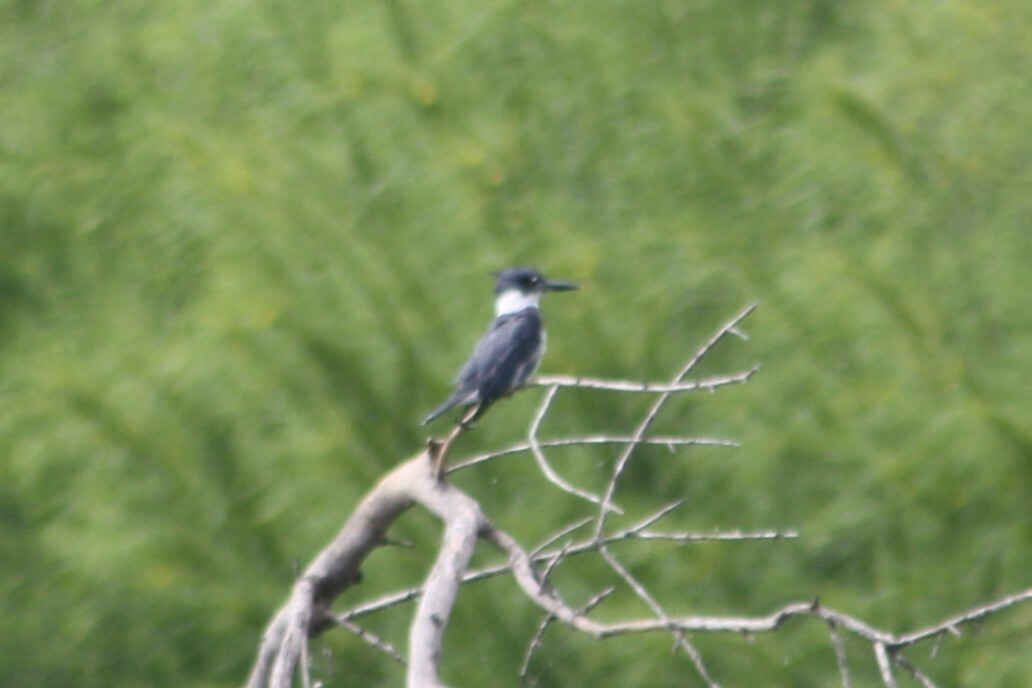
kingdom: Animalia
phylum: Chordata
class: Aves
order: Coraciiformes
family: Alcedinidae
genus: Megaceryle
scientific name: Megaceryle alcyon
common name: Belted kingfisher
